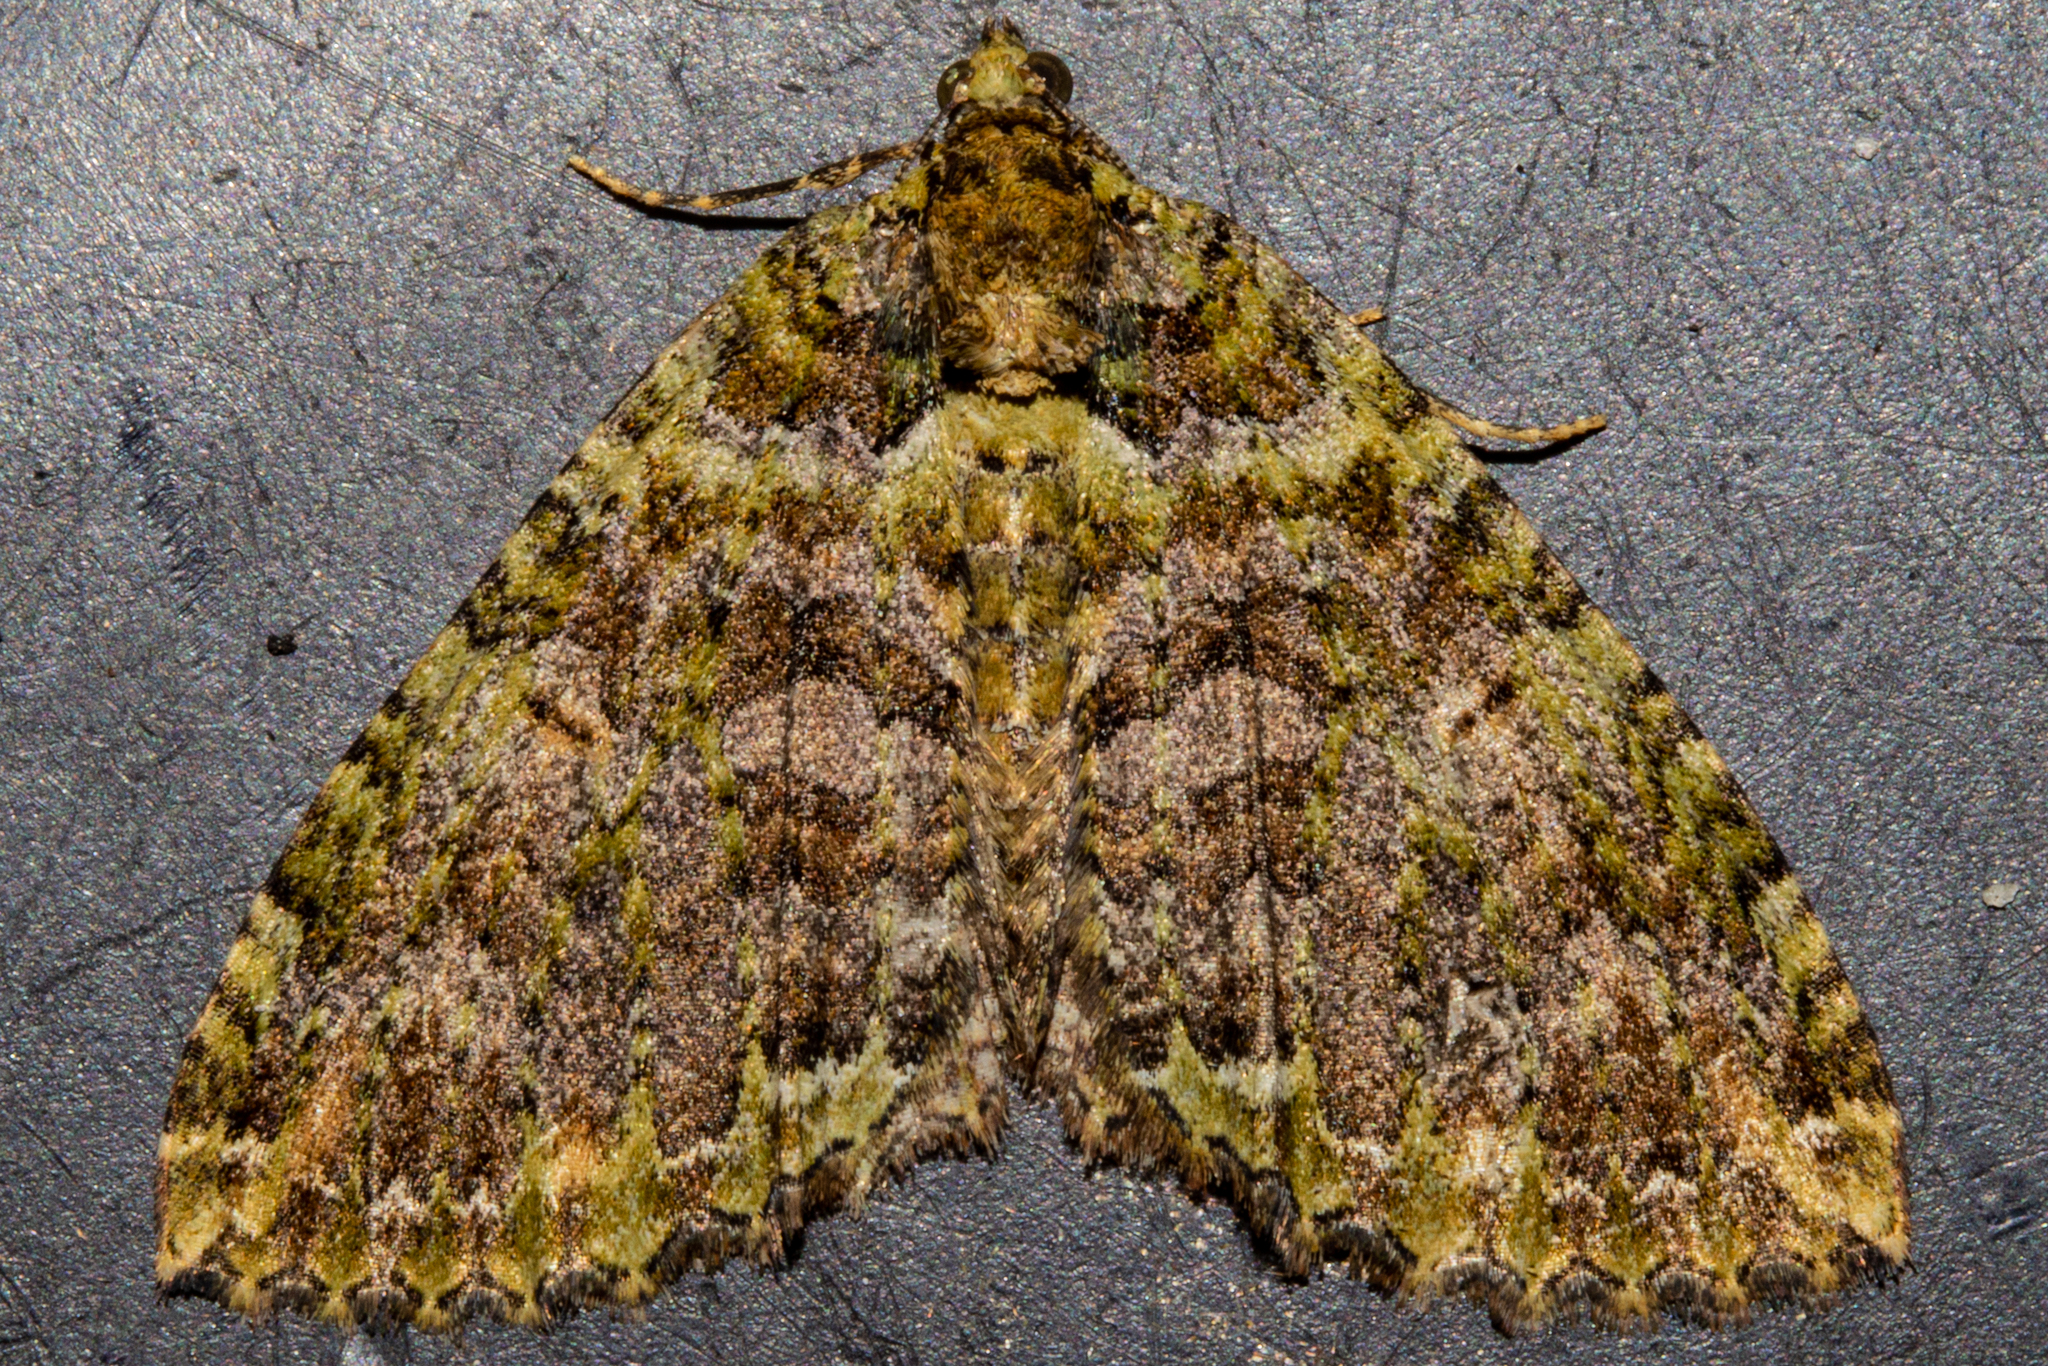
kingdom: Animalia
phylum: Arthropoda
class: Insecta
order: Lepidoptera
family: Geometridae
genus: Austrocidaria
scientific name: Austrocidaria similata
